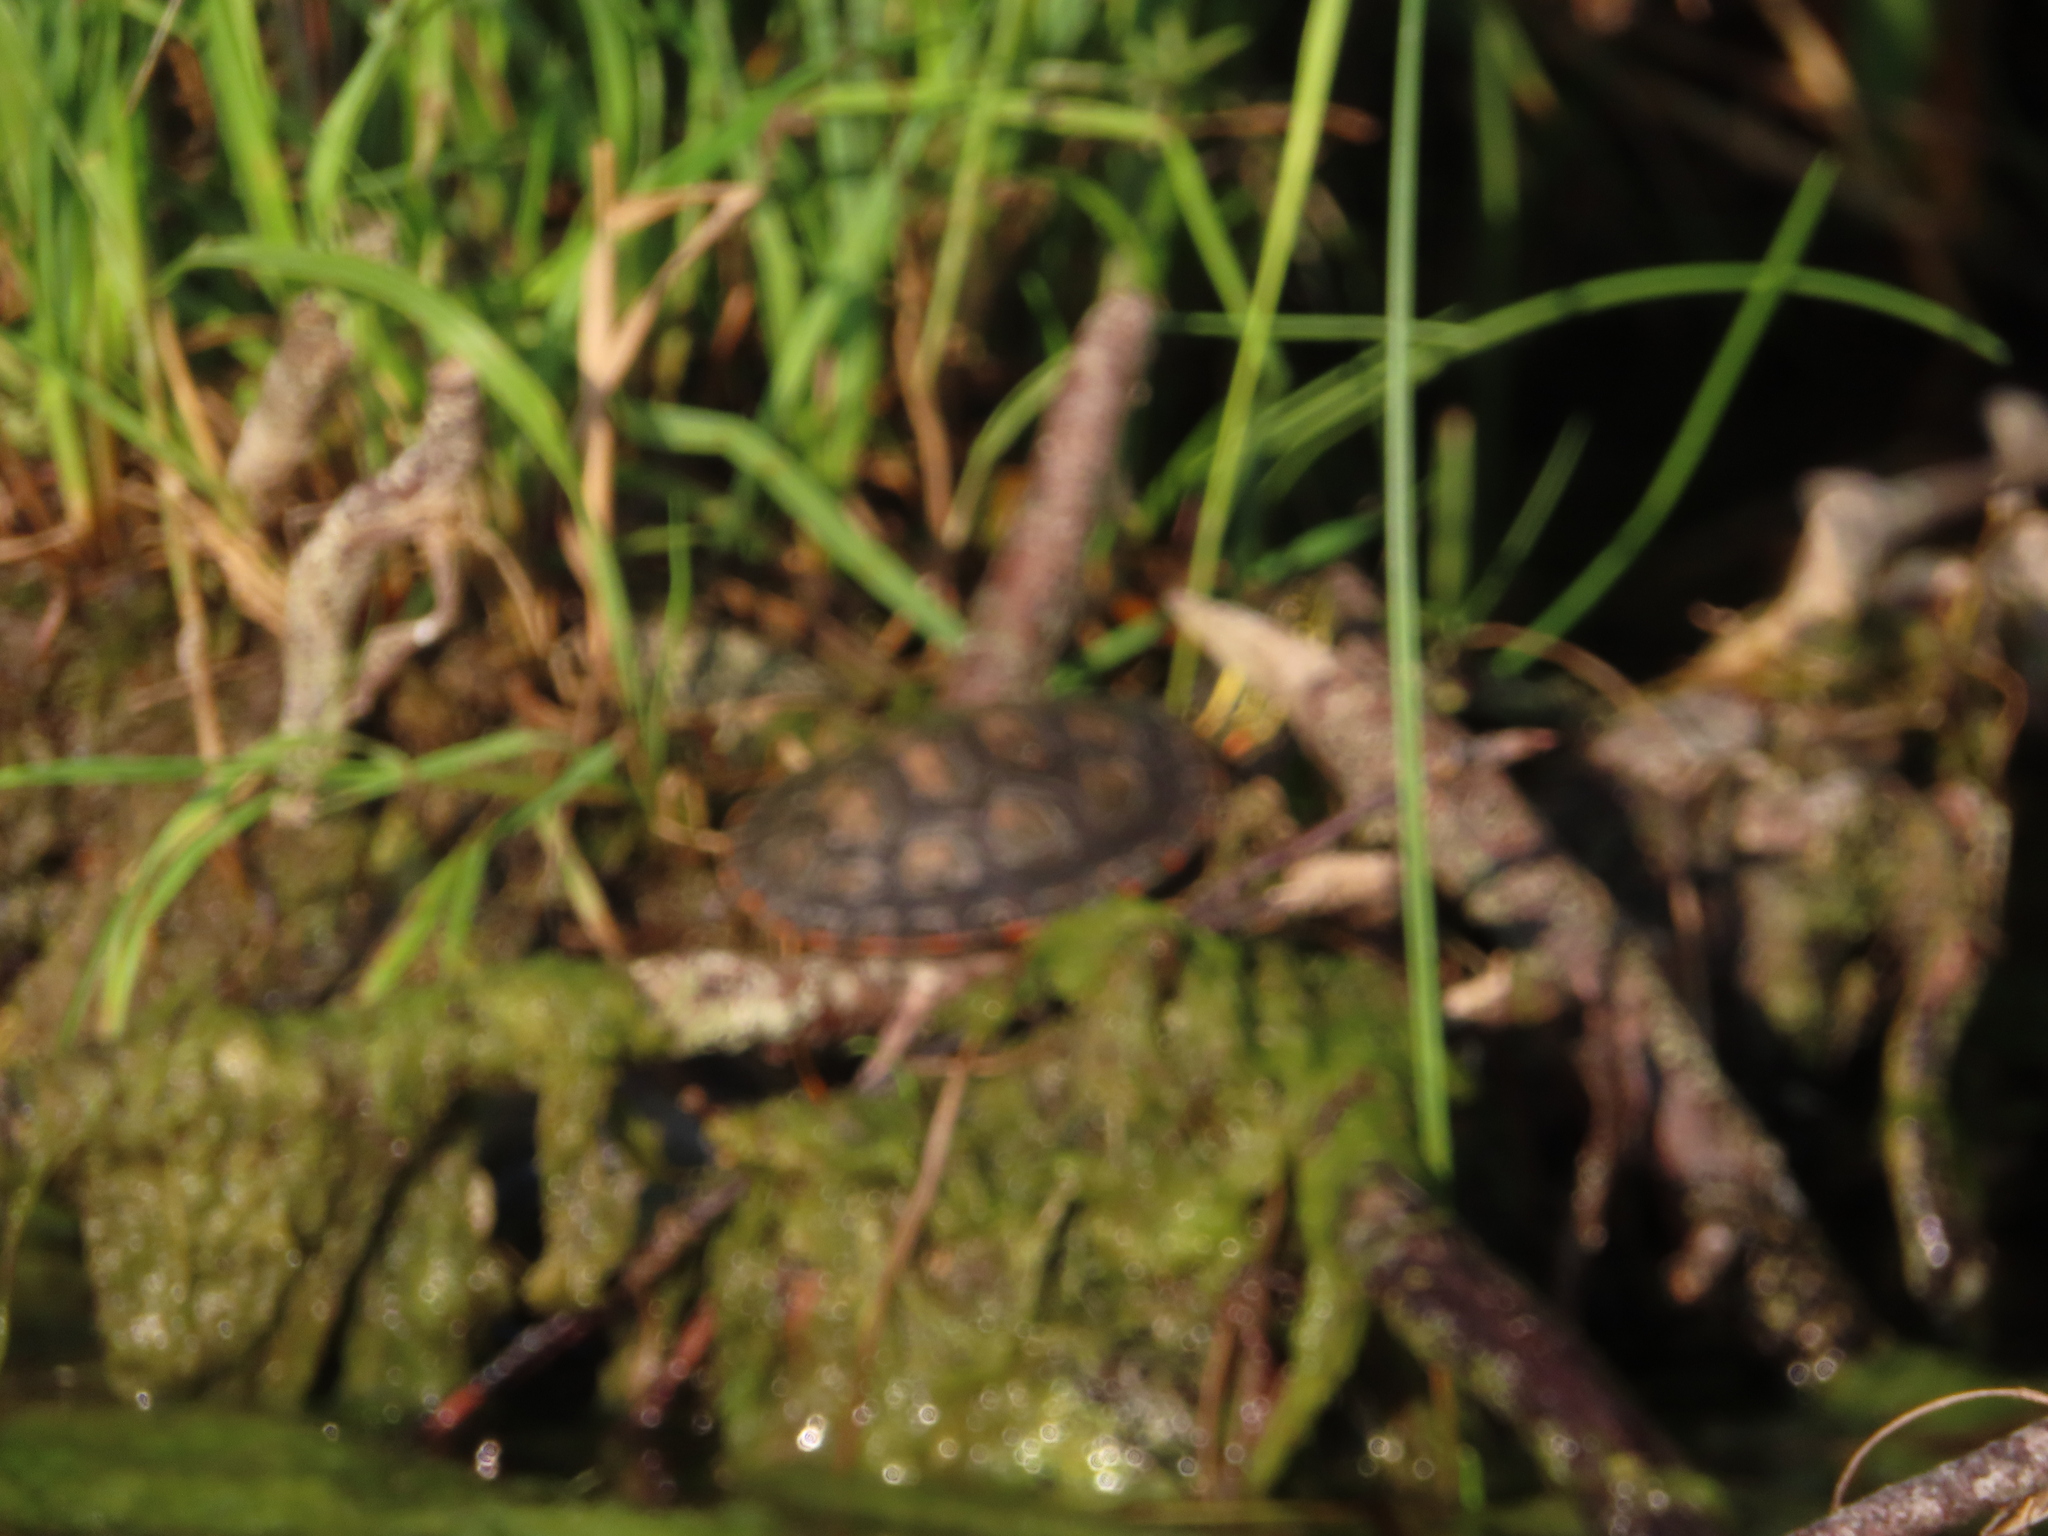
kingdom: Animalia
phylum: Chordata
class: Testudines
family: Emydidae
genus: Chrysemys
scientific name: Chrysemys picta
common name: Painted turtle
